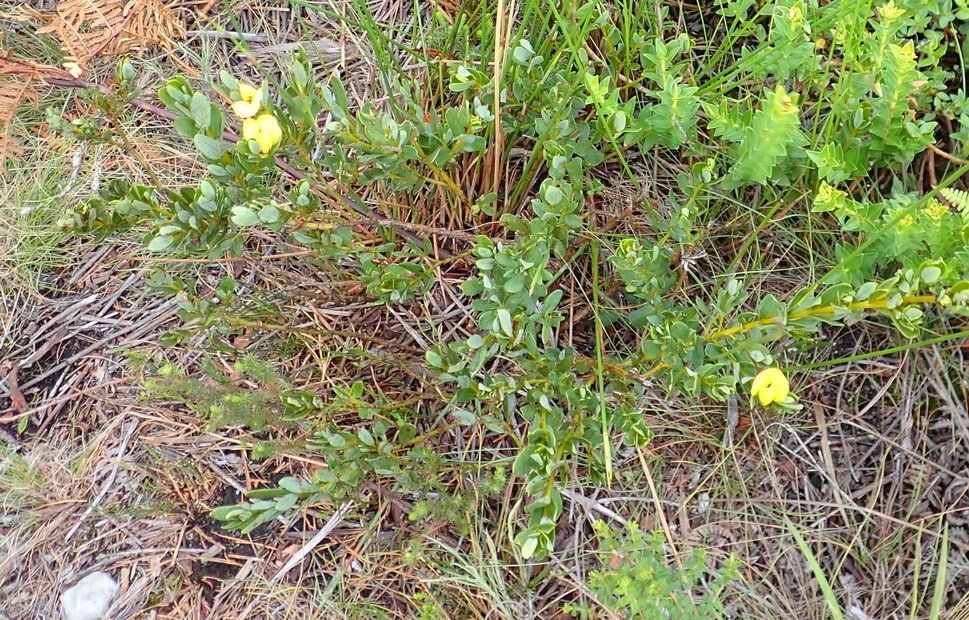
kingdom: Plantae
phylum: Tracheophyta
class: Magnoliopsida
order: Fabales
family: Fabaceae
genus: Cyclopia
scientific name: Cyclopia sessiliflora
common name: Heidelberg tea
